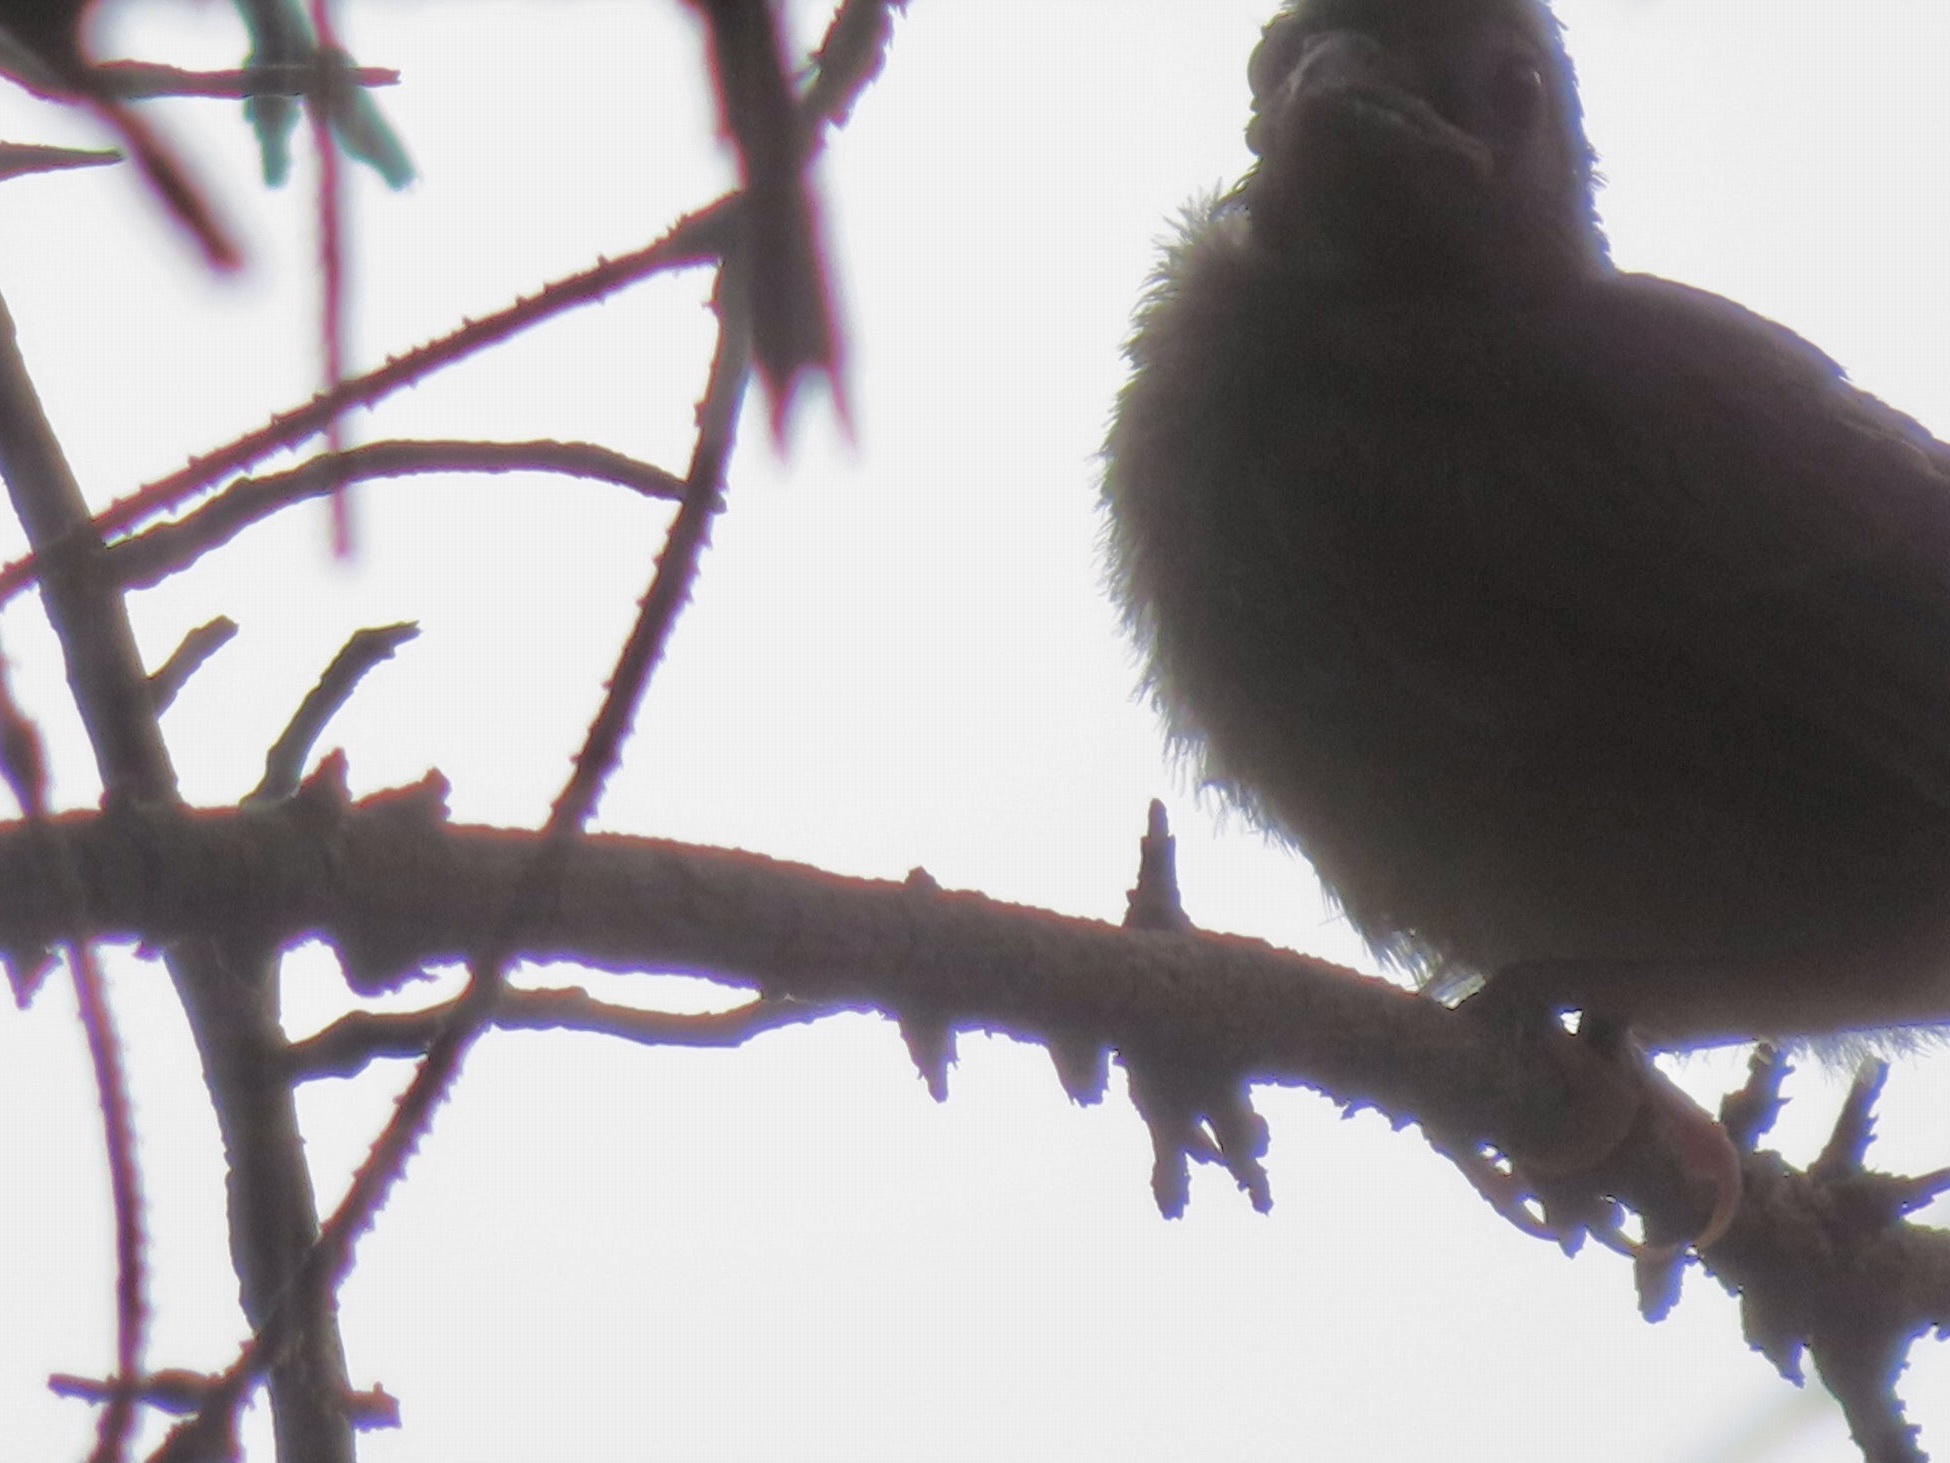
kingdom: Animalia
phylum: Chordata
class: Aves
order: Passeriformes
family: Cardinalidae
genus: Cardinalis
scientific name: Cardinalis cardinalis
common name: Northern cardinal
